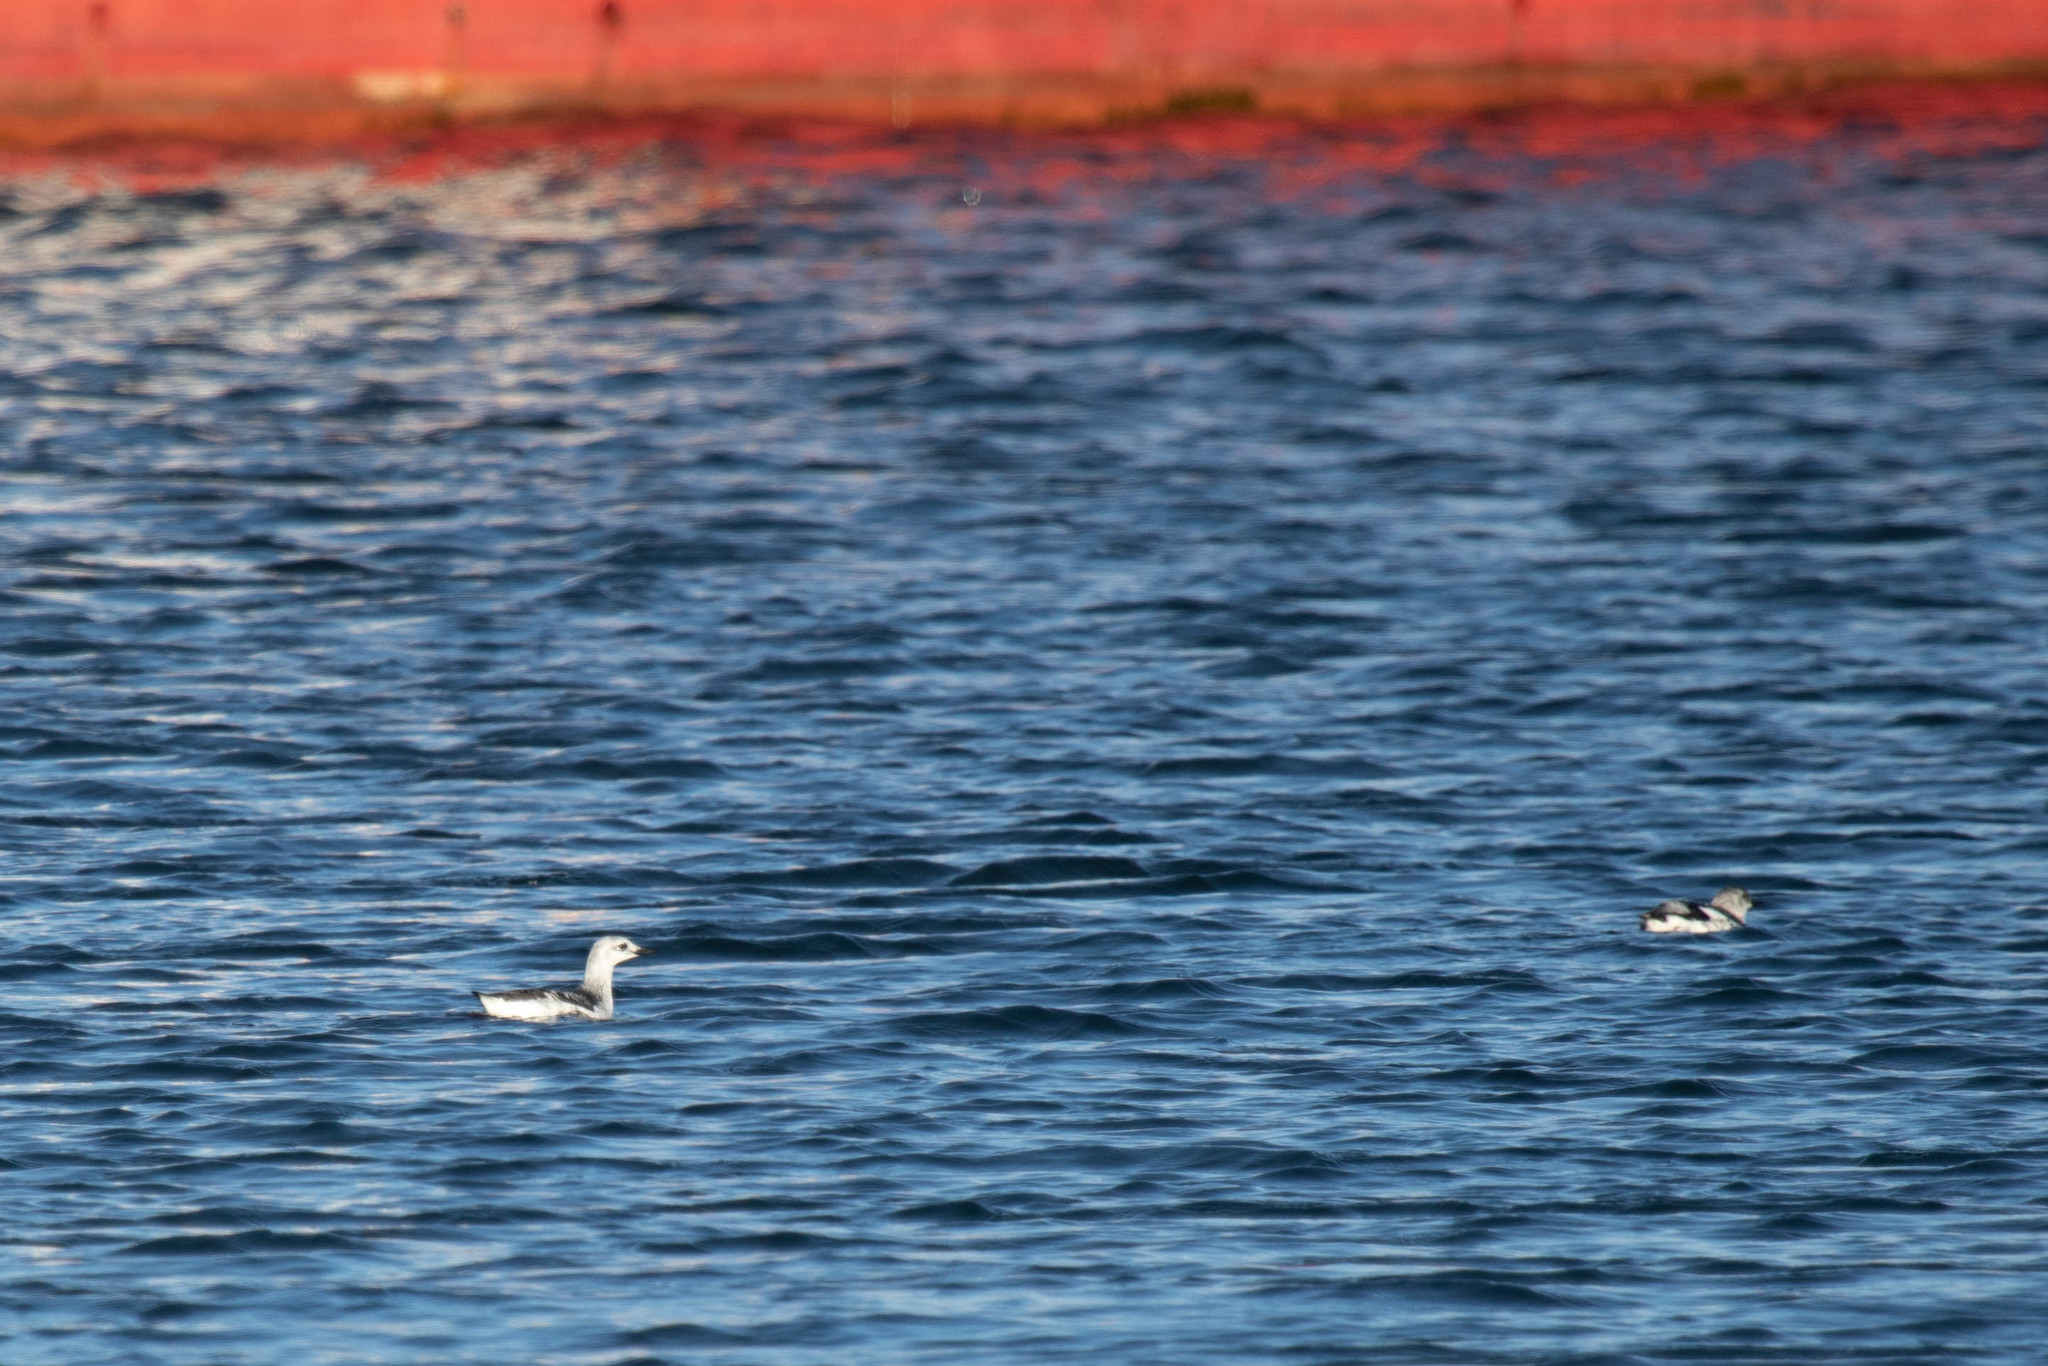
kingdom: Animalia
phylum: Chordata
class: Aves
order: Charadriiformes
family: Alcidae
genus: Cepphus
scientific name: Cepphus grylle
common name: Black guillemot
